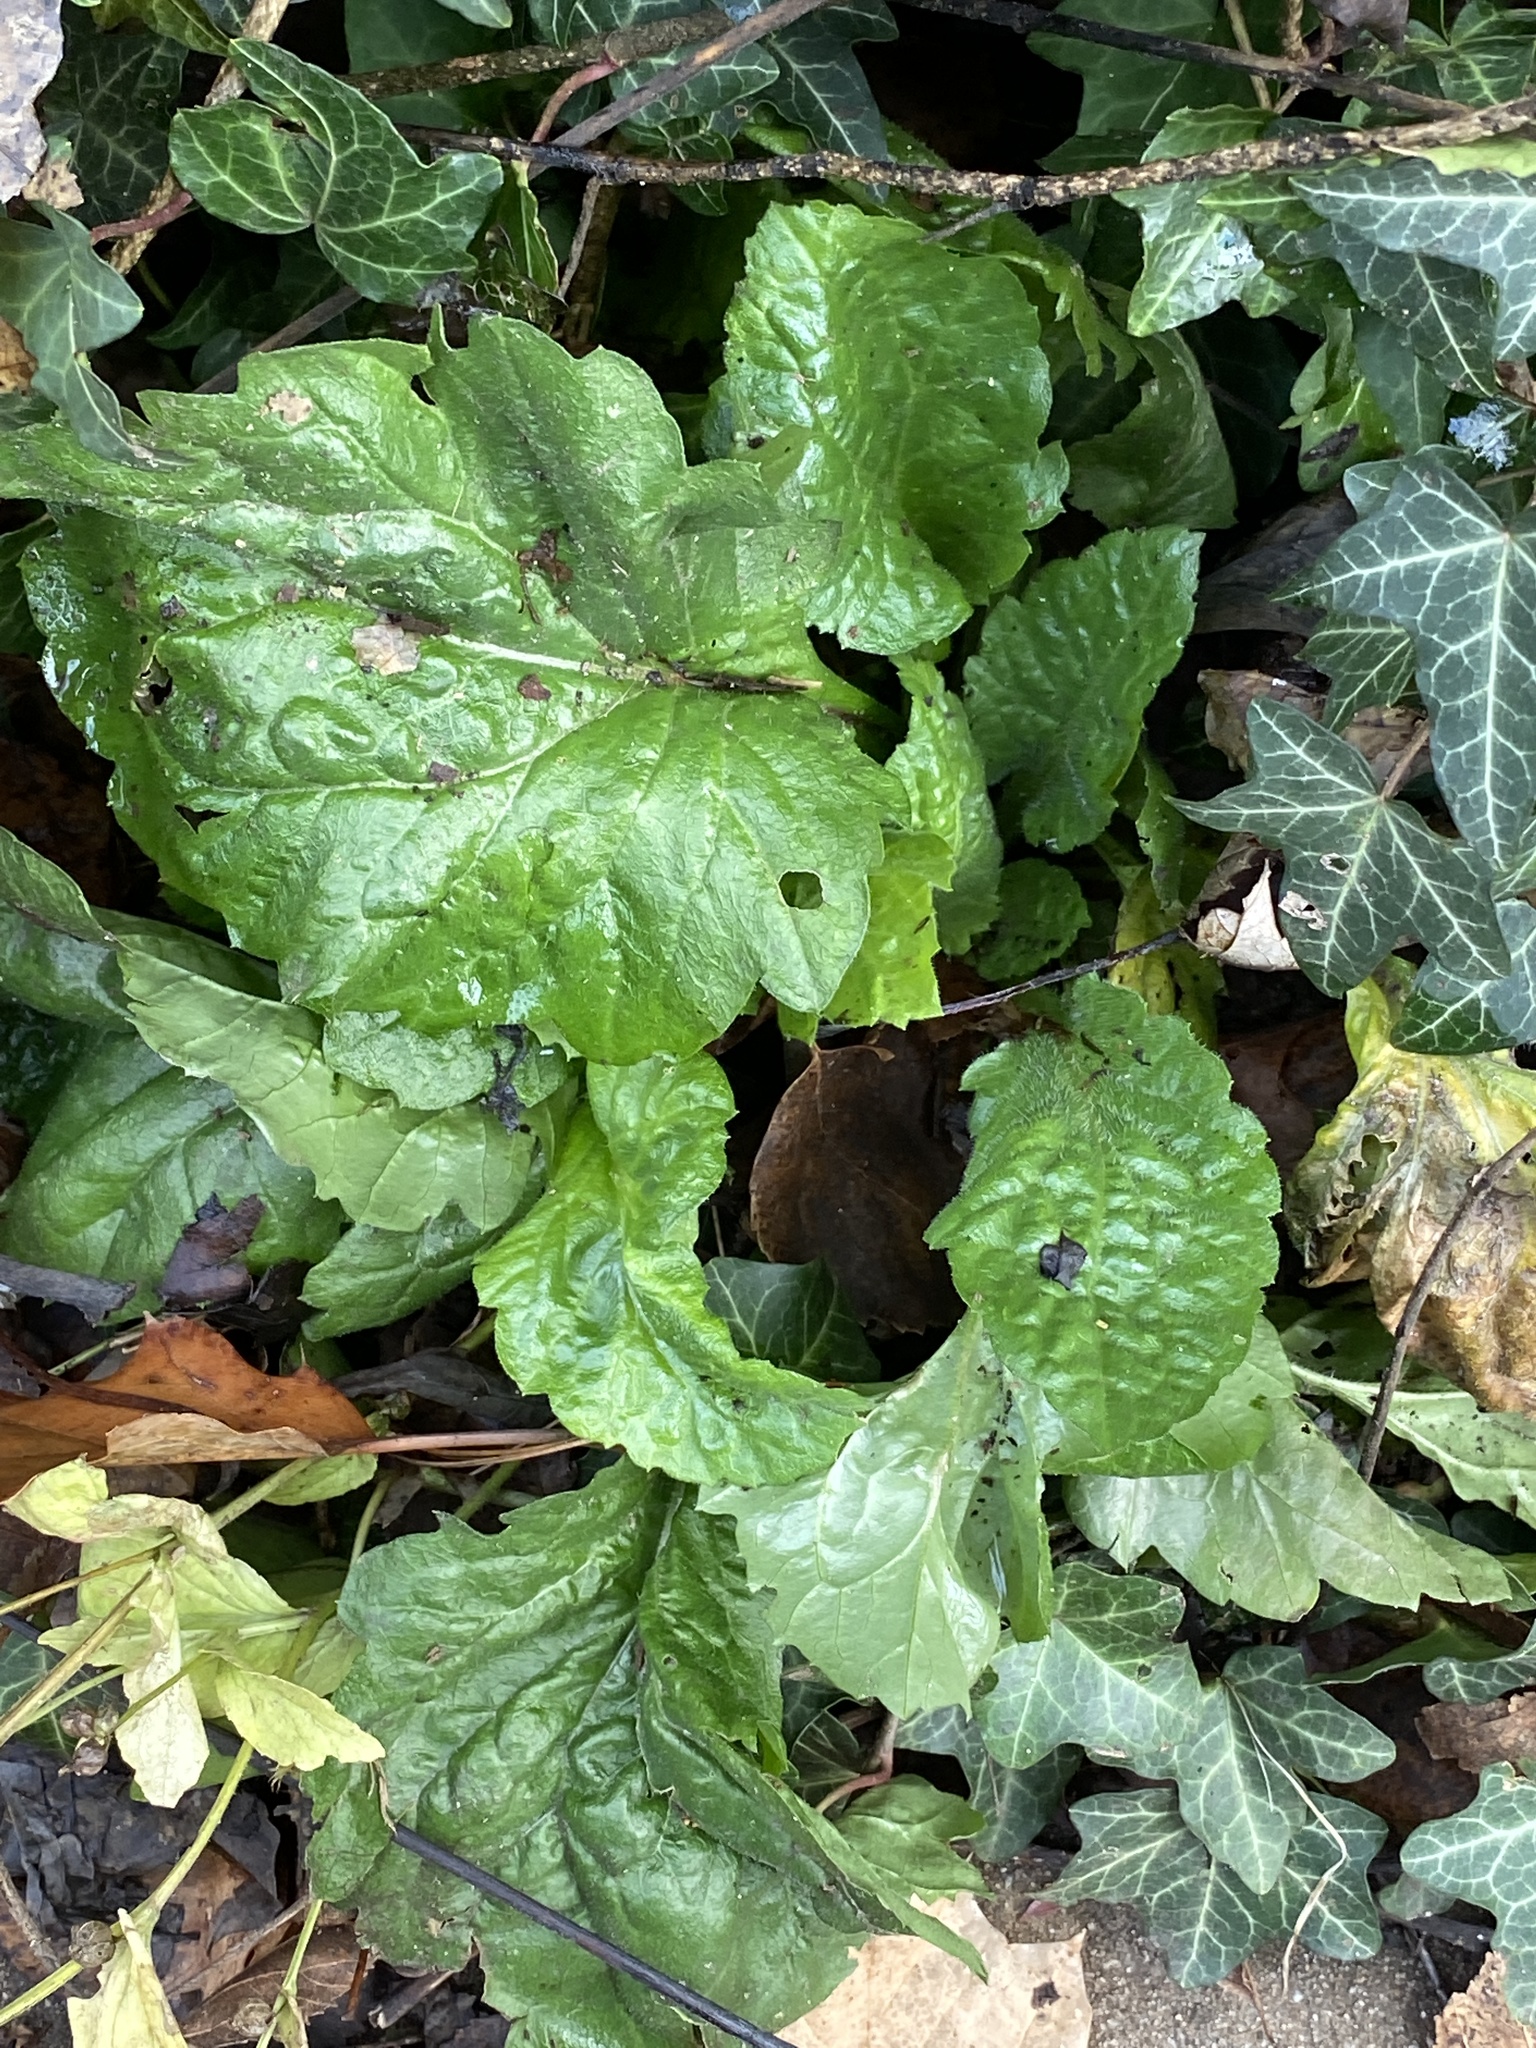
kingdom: Plantae
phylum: Tracheophyta
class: Magnoliopsida
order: Asterales
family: Asteraceae
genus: Erigeron
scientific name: Erigeron annuus
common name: Tall fleabane
